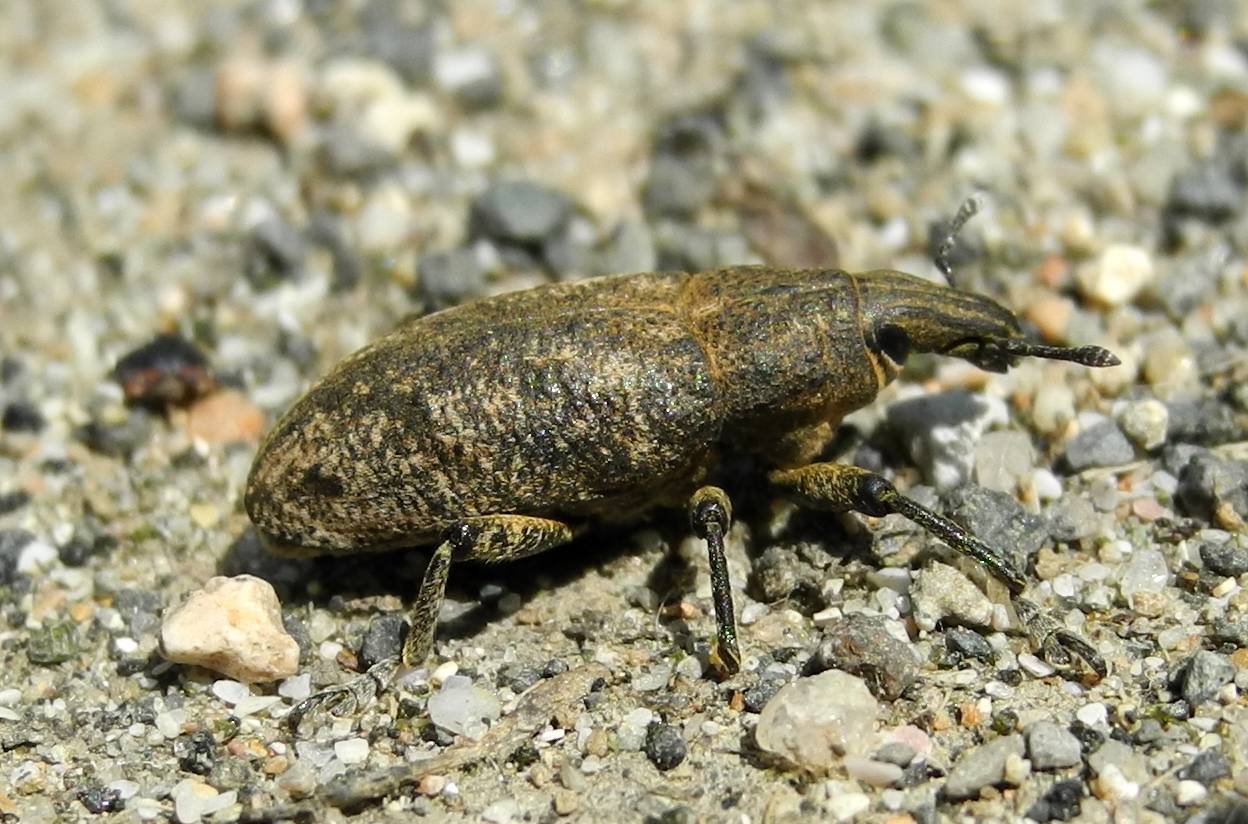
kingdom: Animalia
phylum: Arthropoda
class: Insecta
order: Coleoptera
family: Curculionidae
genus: Cleonis
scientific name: Cleonis pigra
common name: Large thistle weevil
